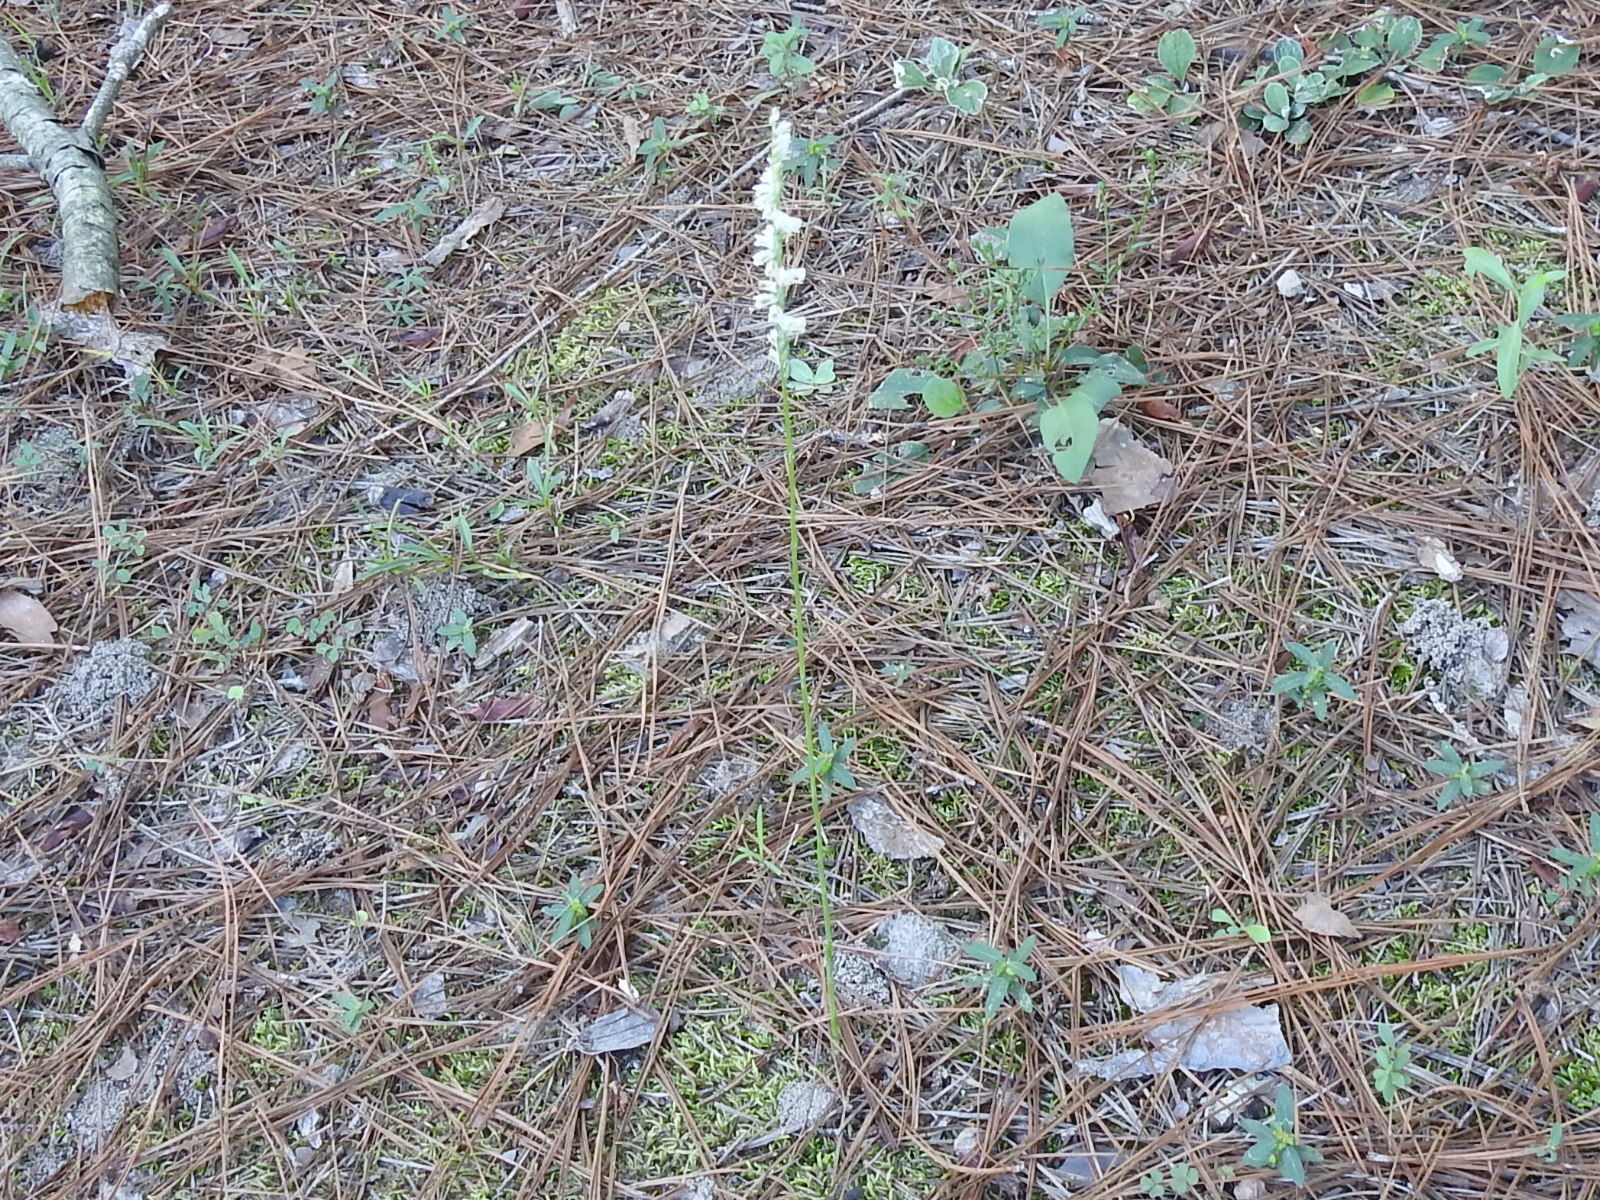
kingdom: Plantae
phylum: Tracheophyta
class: Liliopsida
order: Asparagales
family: Orchidaceae
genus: Spiranthes
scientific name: Spiranthes lacera
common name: Northern slender ladies'-tresses
